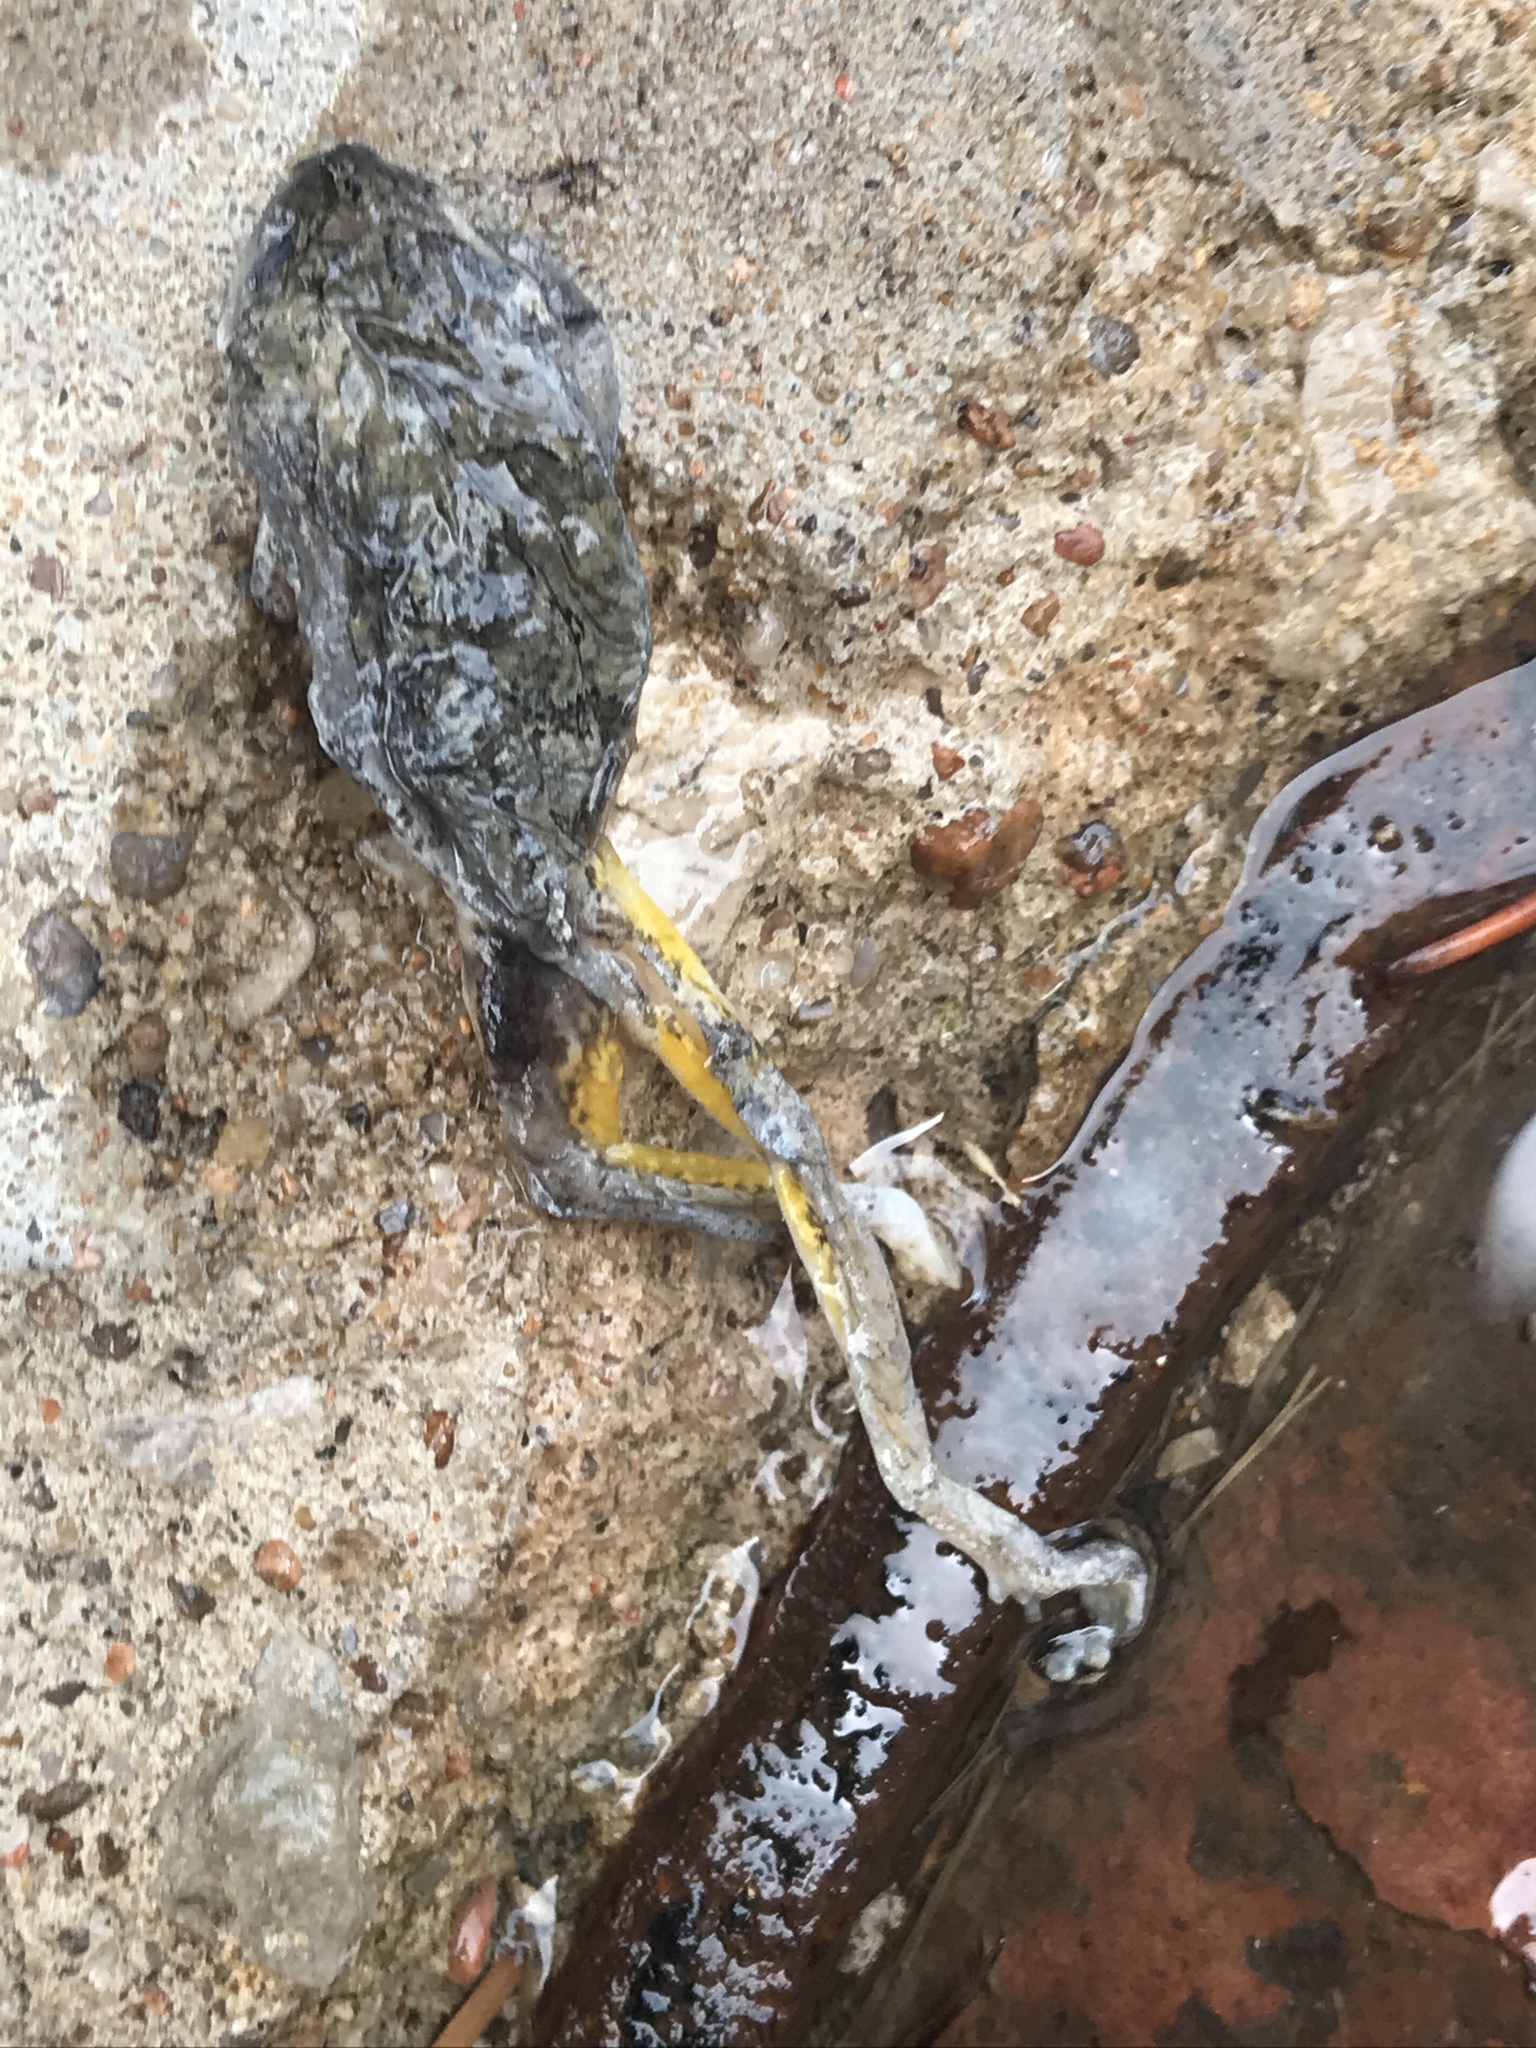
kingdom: Animalia
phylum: Chordata
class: Amphibia
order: Anura
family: Hylidae
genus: Hyla
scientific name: Hyla
